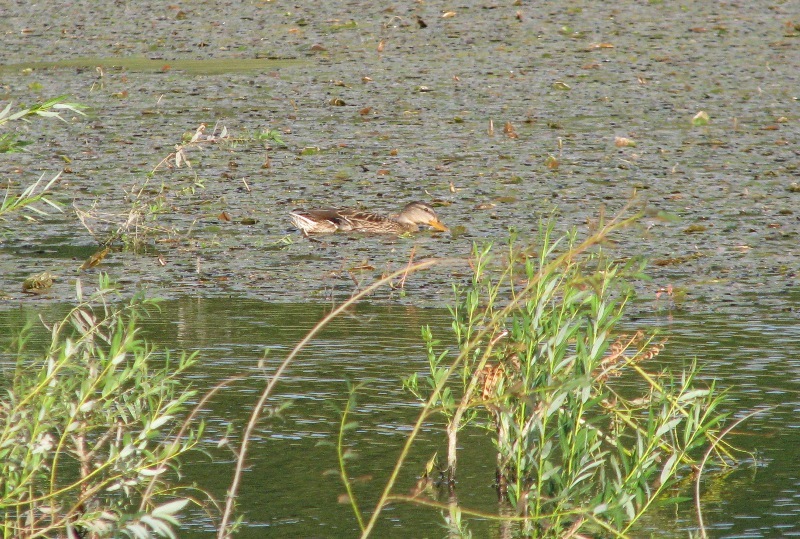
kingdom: Animalia
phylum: Chordata
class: Aves
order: Anseriformes
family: Anatidae
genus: Anas
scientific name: Anas platyrhynchos
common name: Mallard
